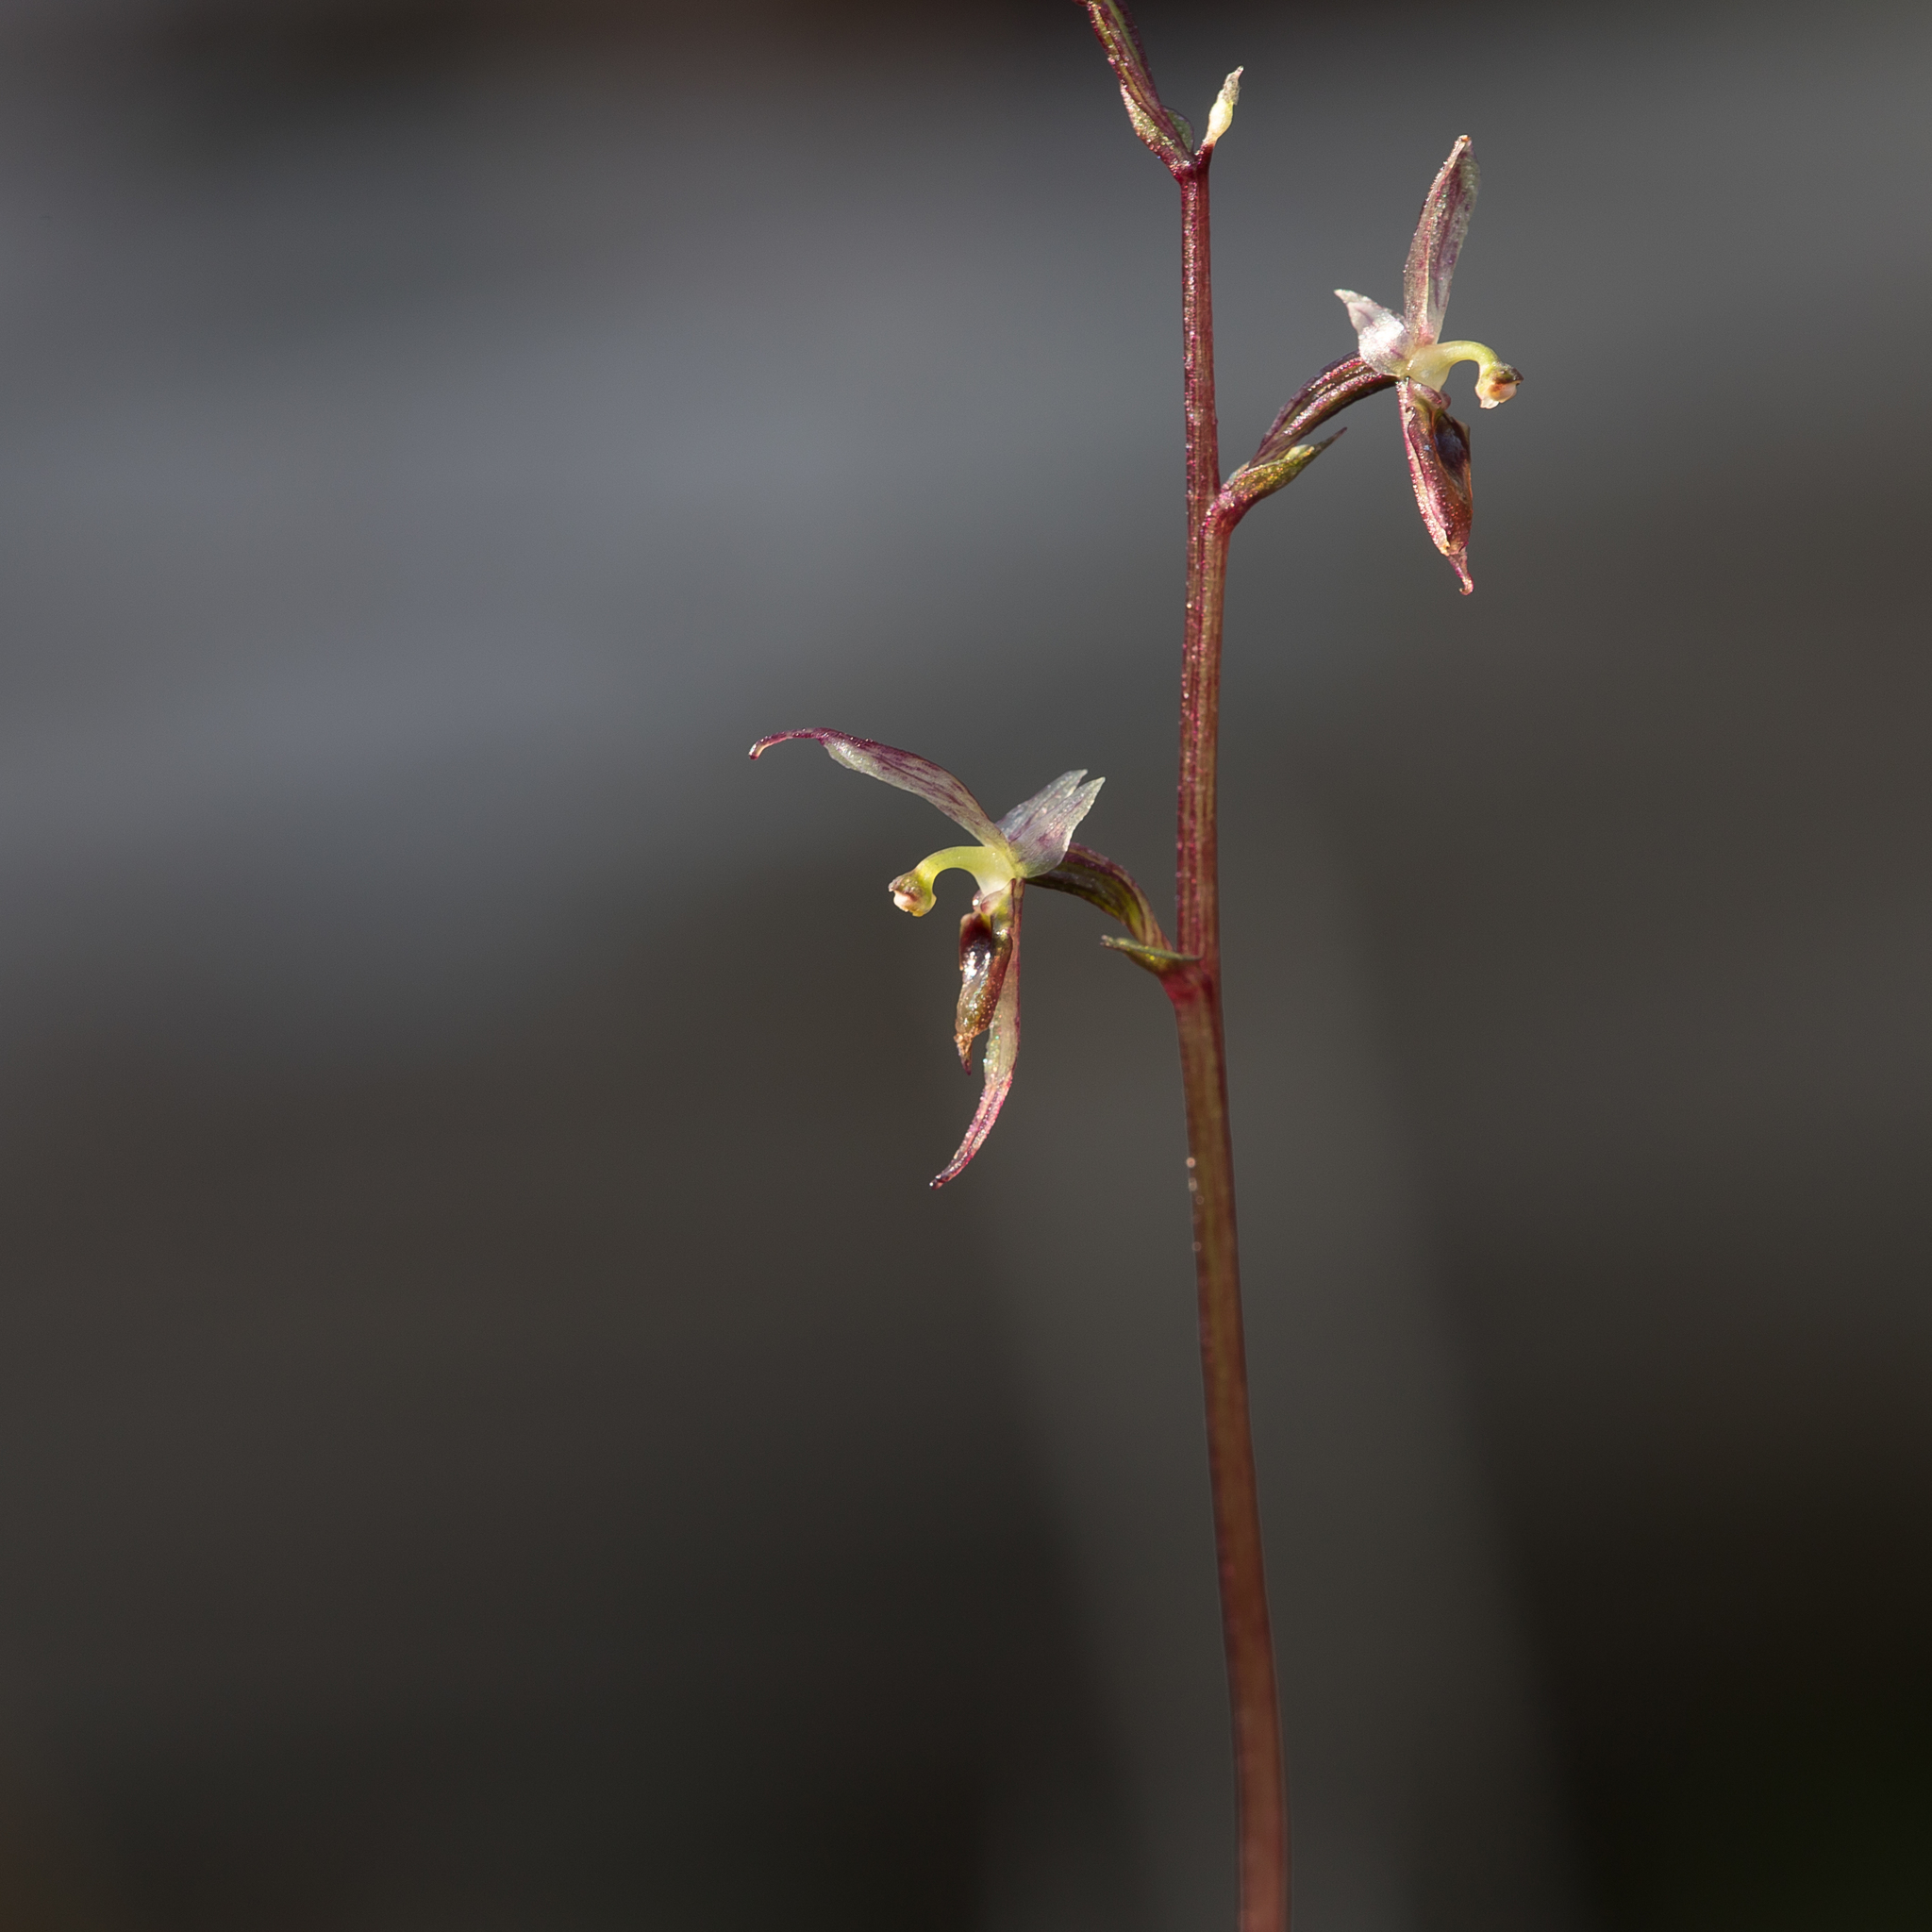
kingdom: Plantae
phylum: Tracheophyta
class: Liliopsida
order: Asparagales
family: Orchidaceae
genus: Acianthus
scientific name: Acianthus pusillus
